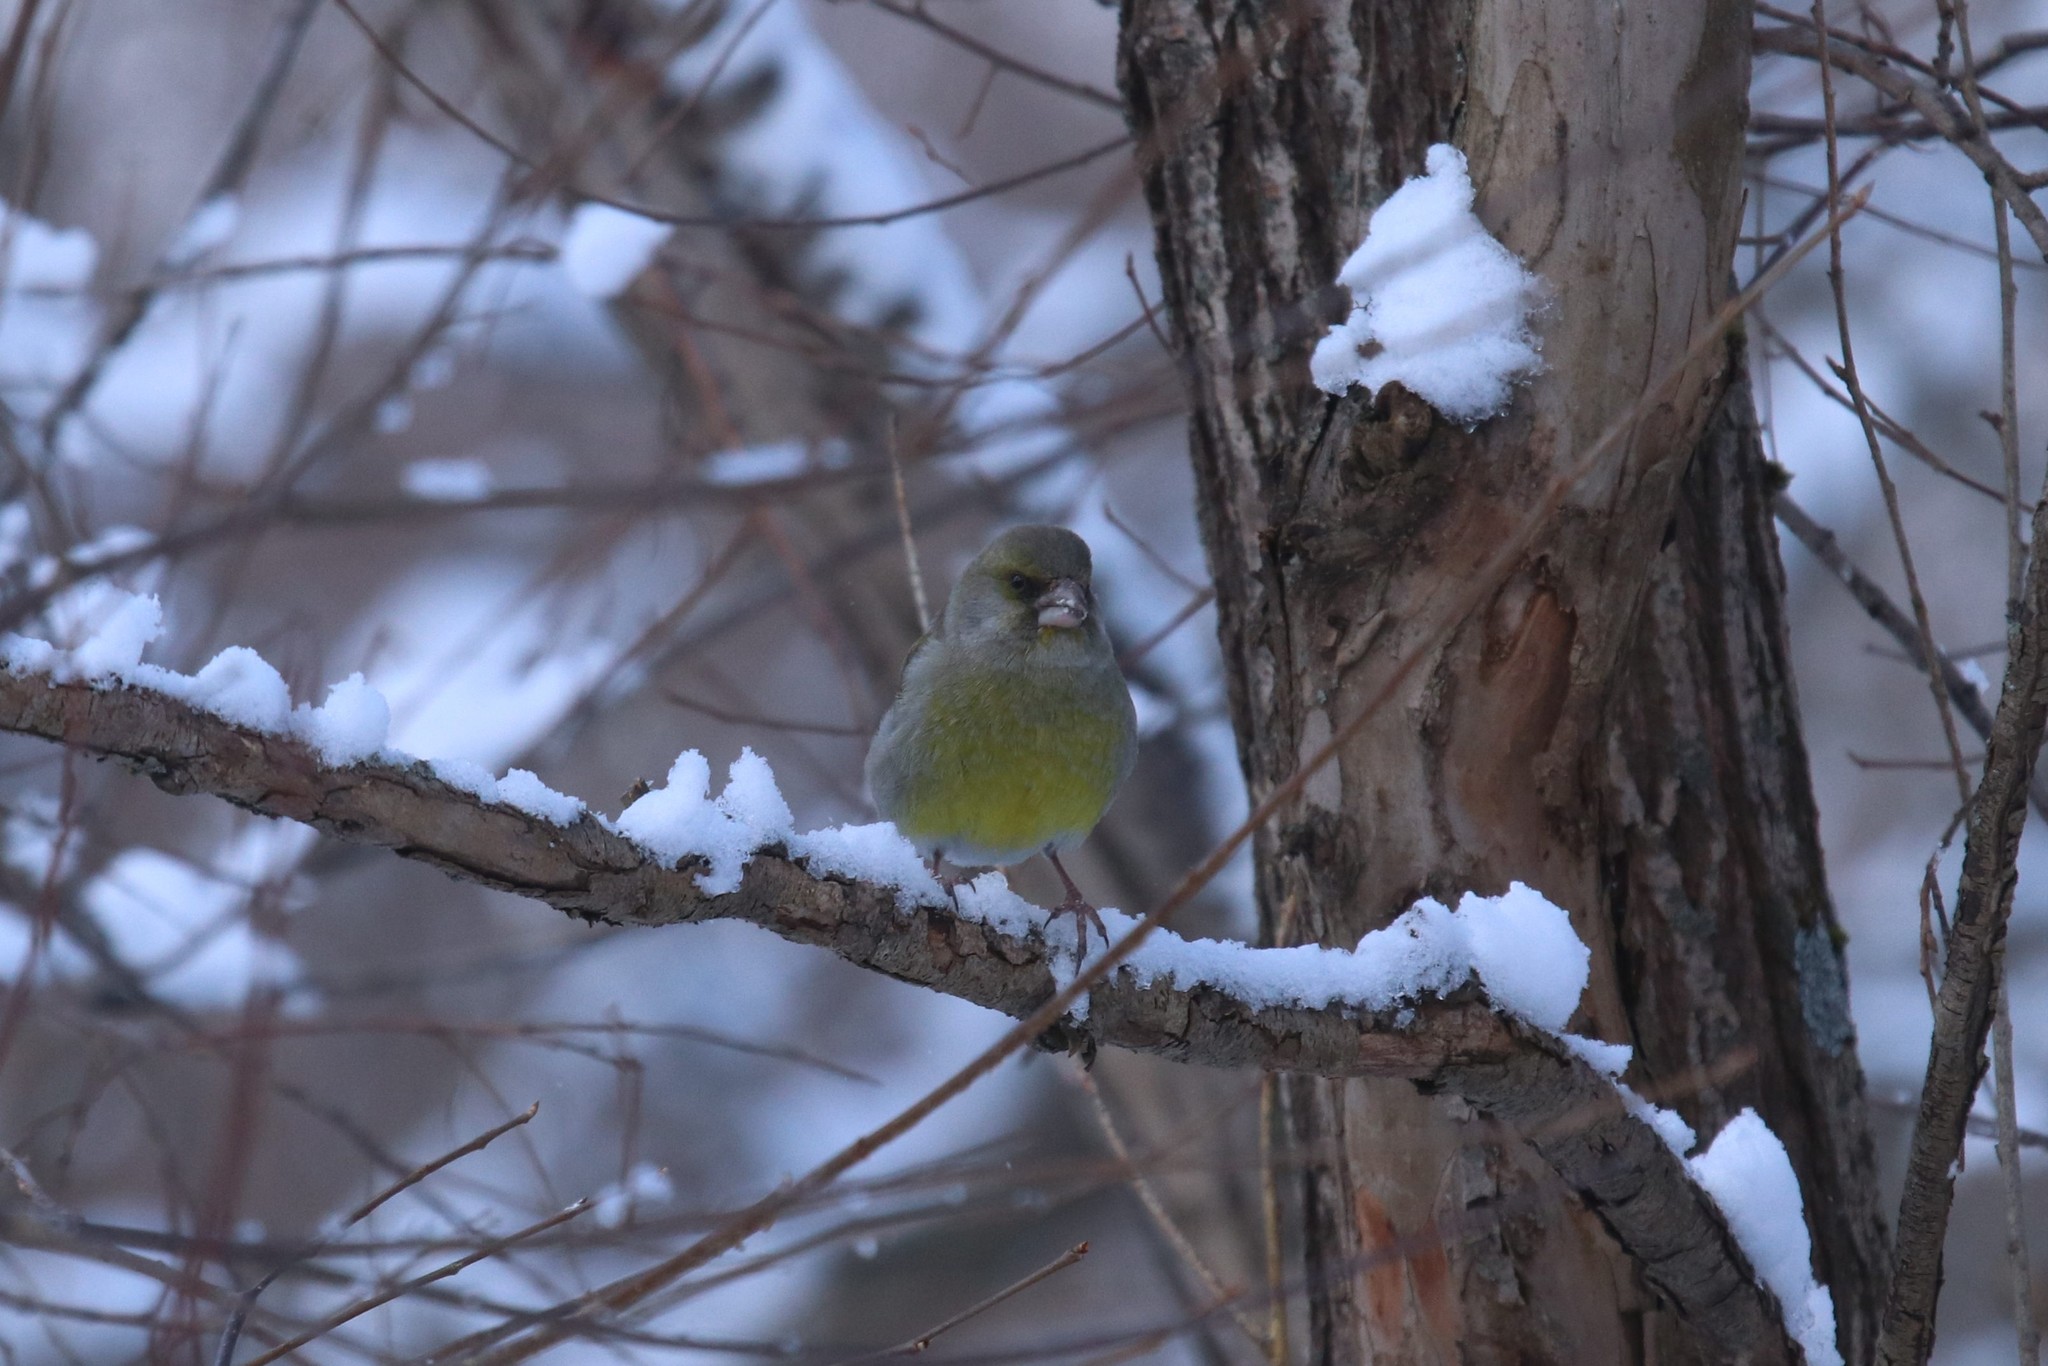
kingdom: Plantae
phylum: Tracheophyta
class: Liliopsida
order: Poales
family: Poaceae
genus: Chloris
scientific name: Chloris chloris
